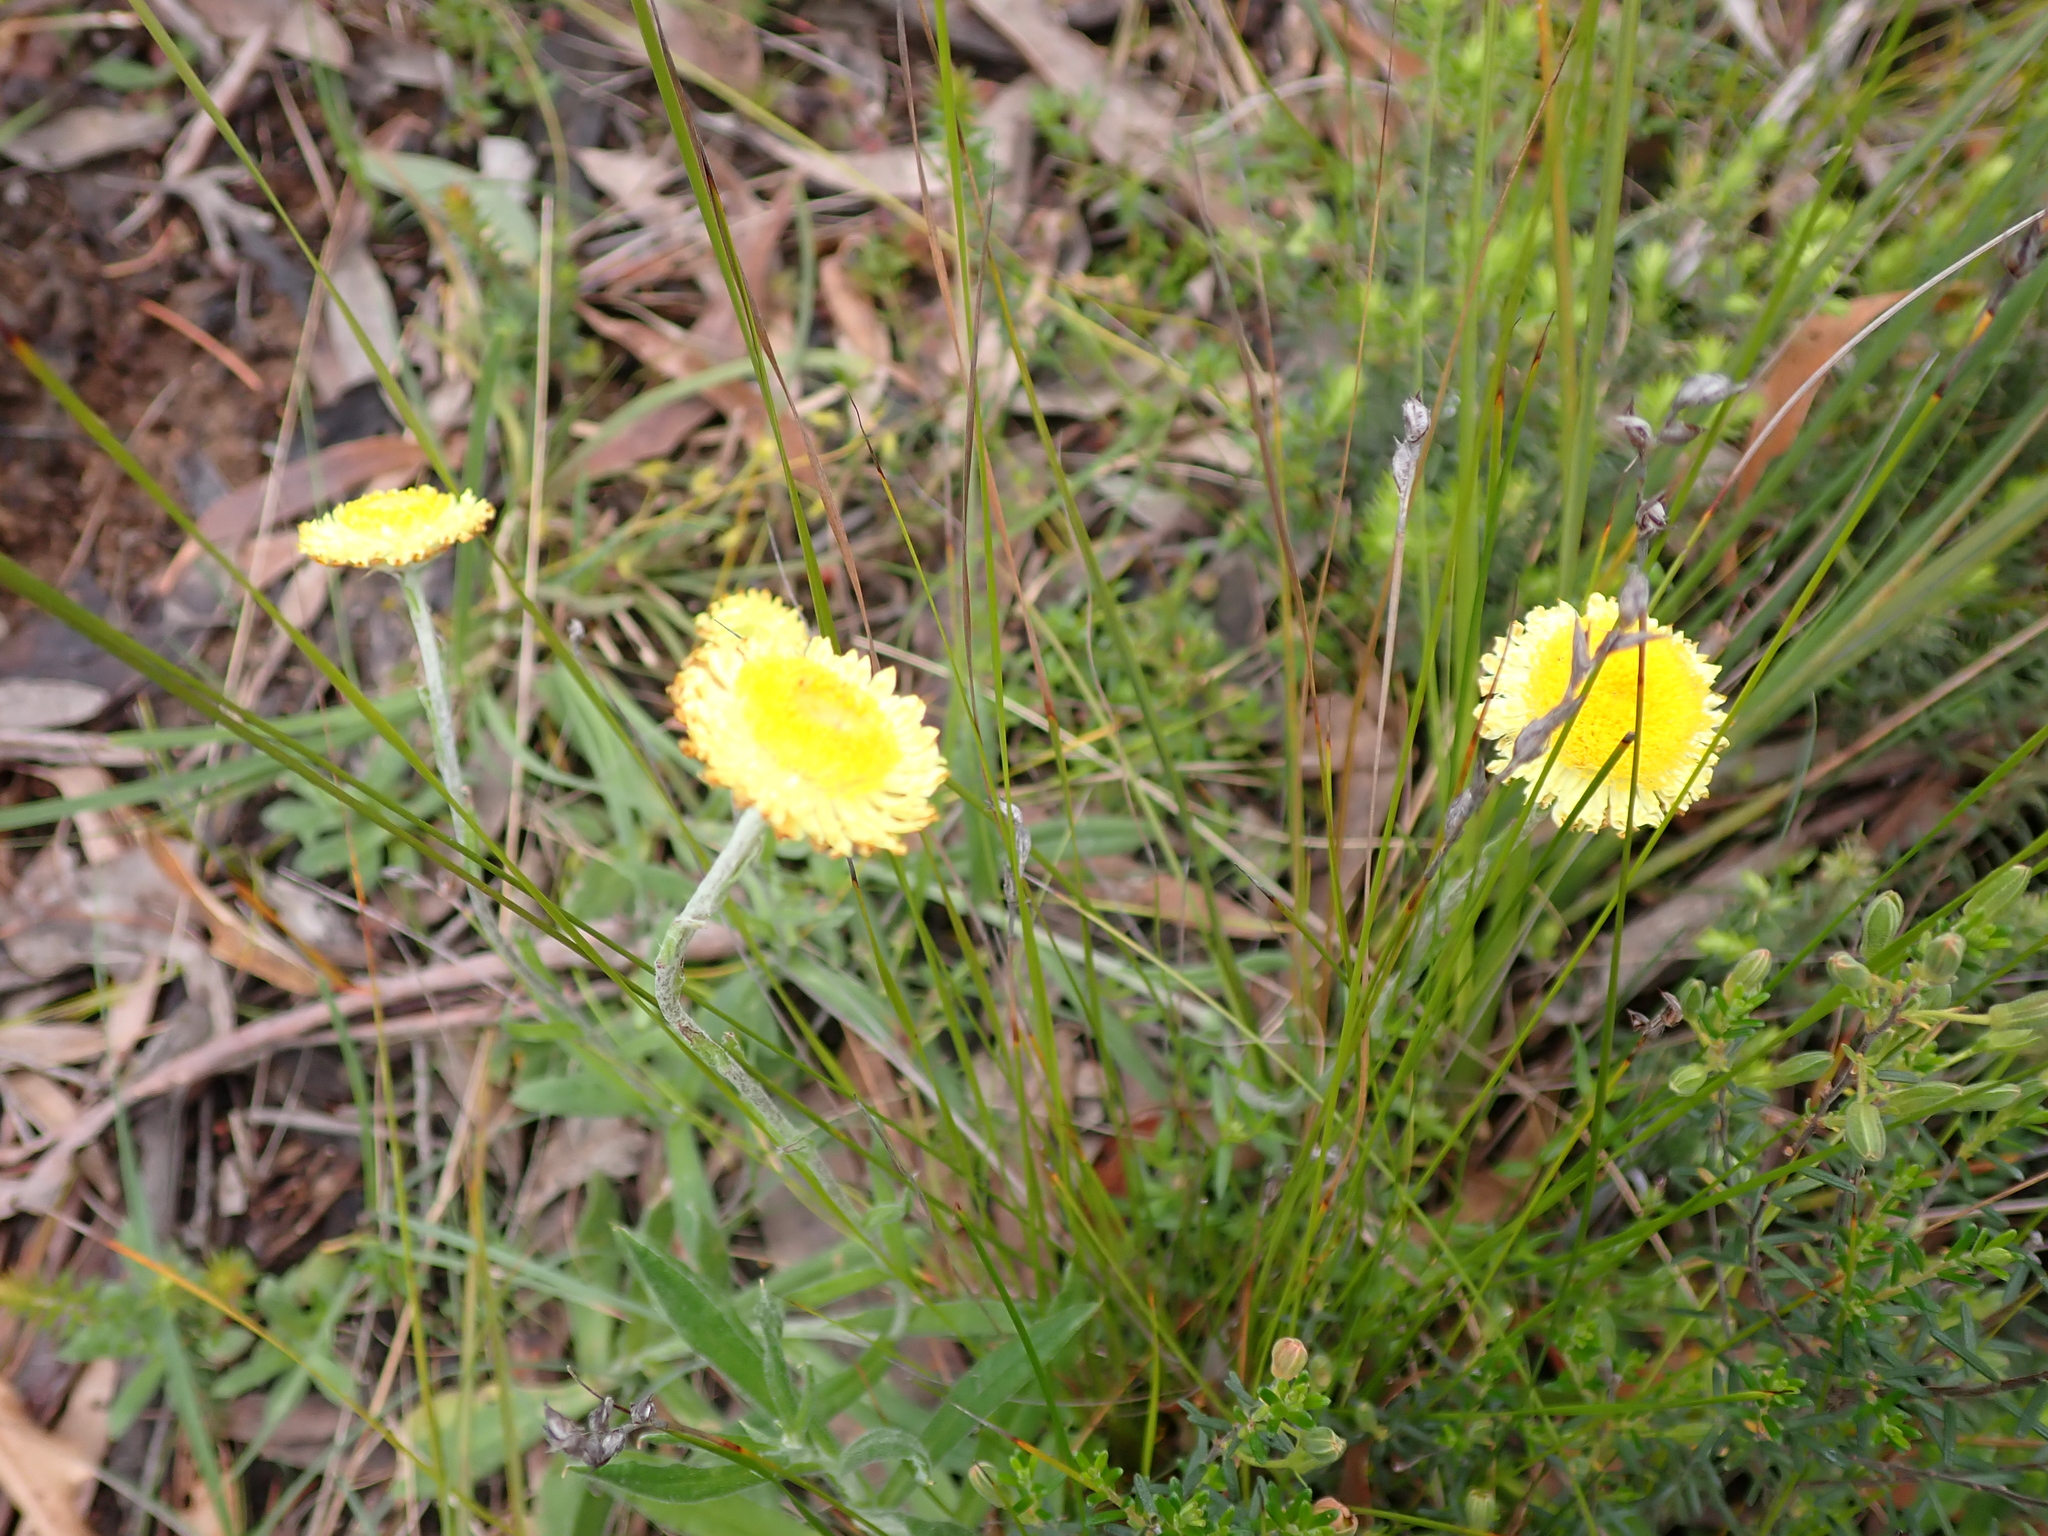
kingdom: Plantae
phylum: Tracheophyta
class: Magnoliopsida
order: Asterales
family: Asteraceae
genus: Coronidium
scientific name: Coronidium scorpioides
